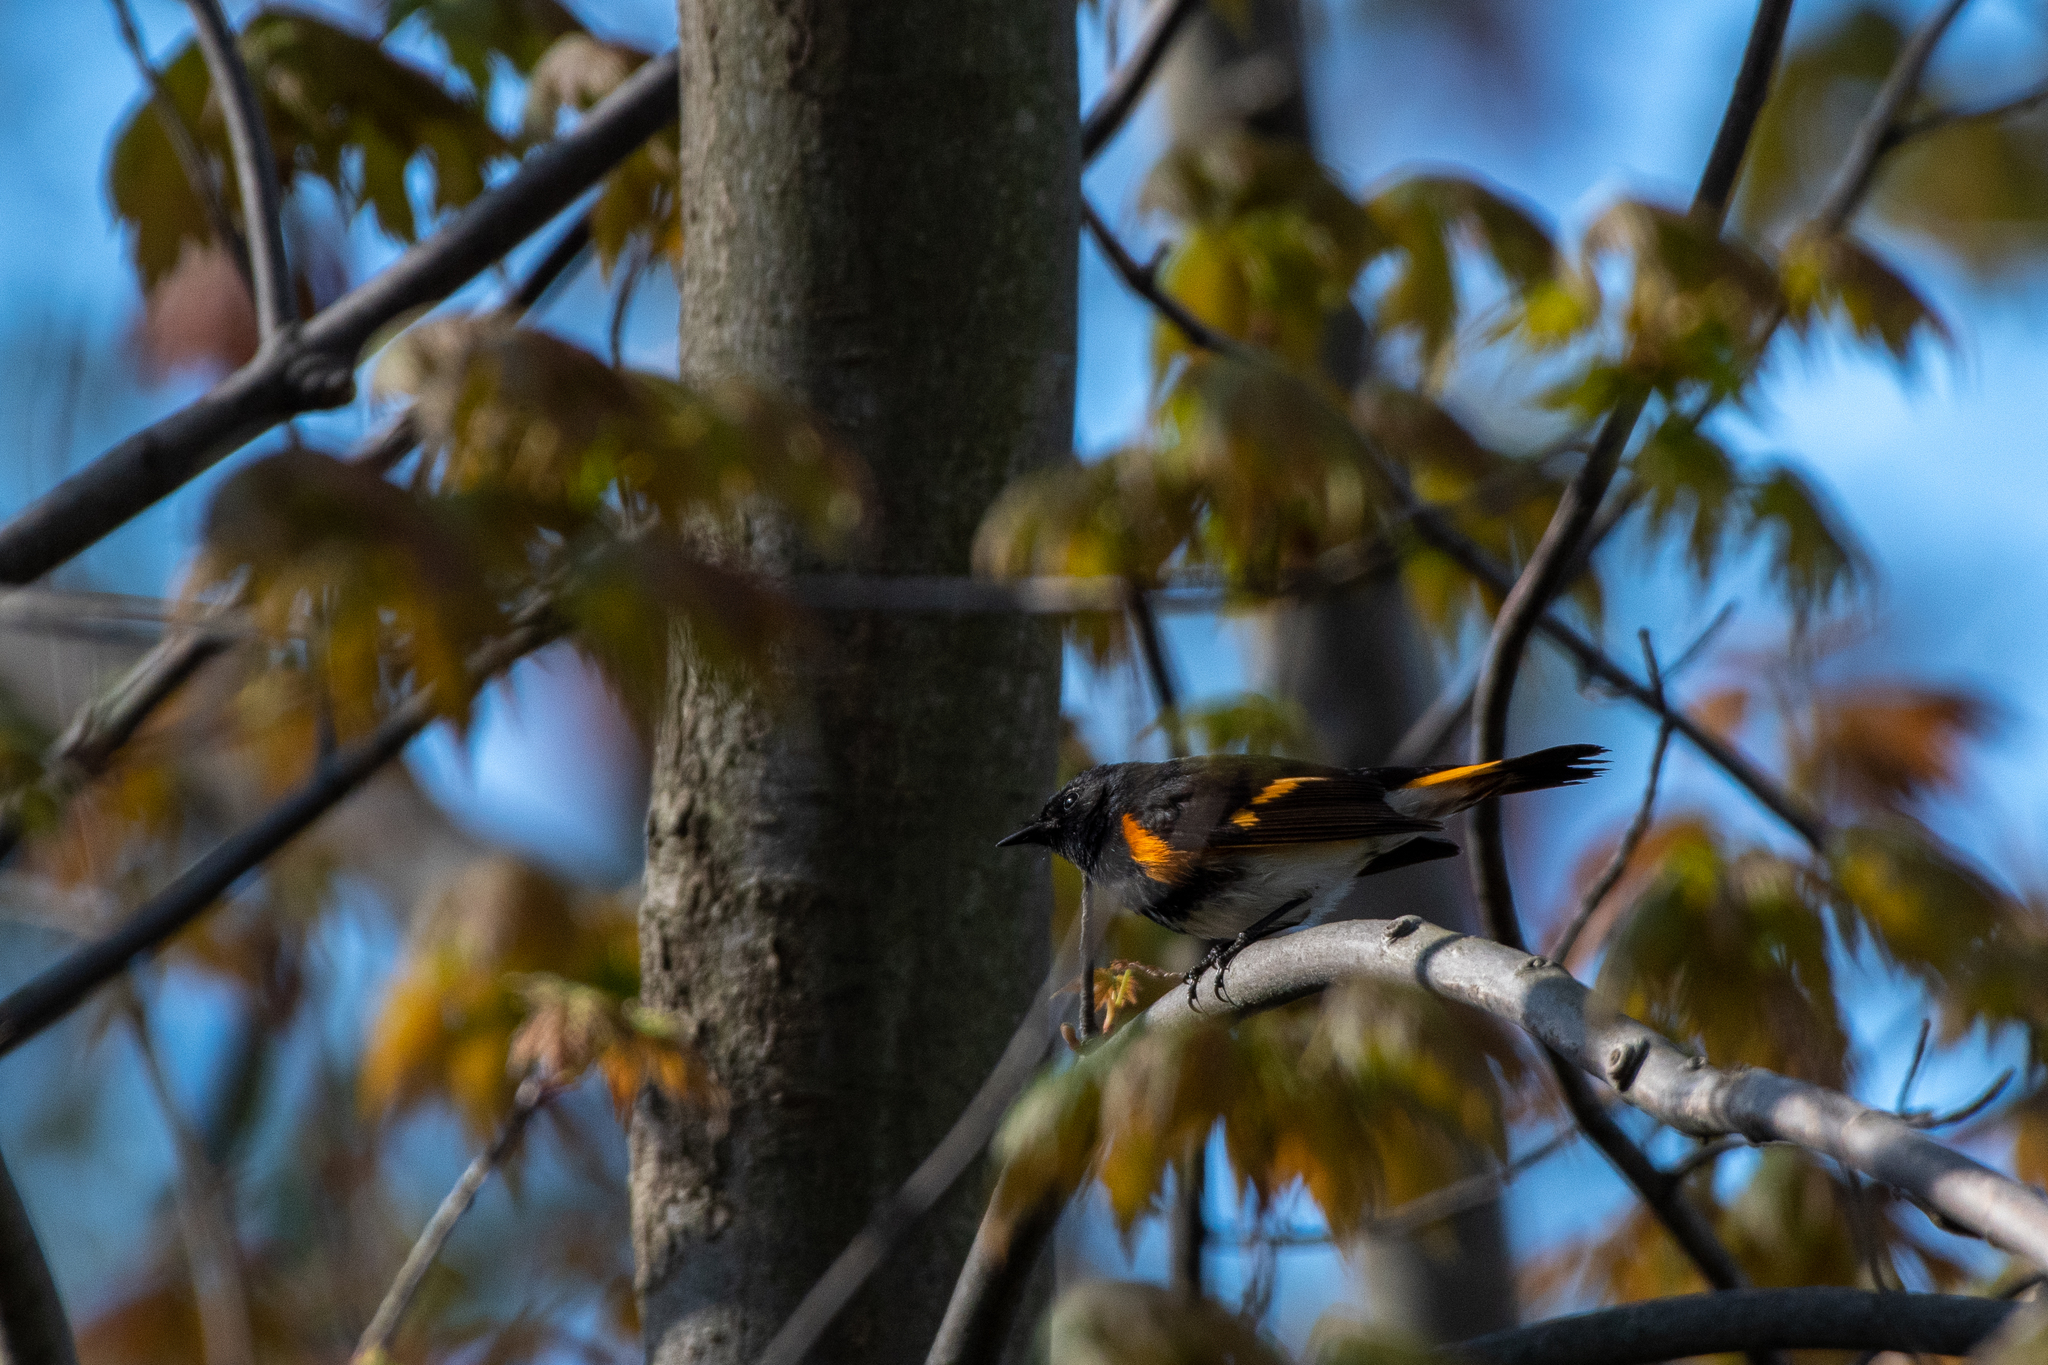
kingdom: Animalia
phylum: Chordata
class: Aves
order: Passeriformes
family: Parulidae
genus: Setophaga
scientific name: Setophaga ruticilla
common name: American redstart
